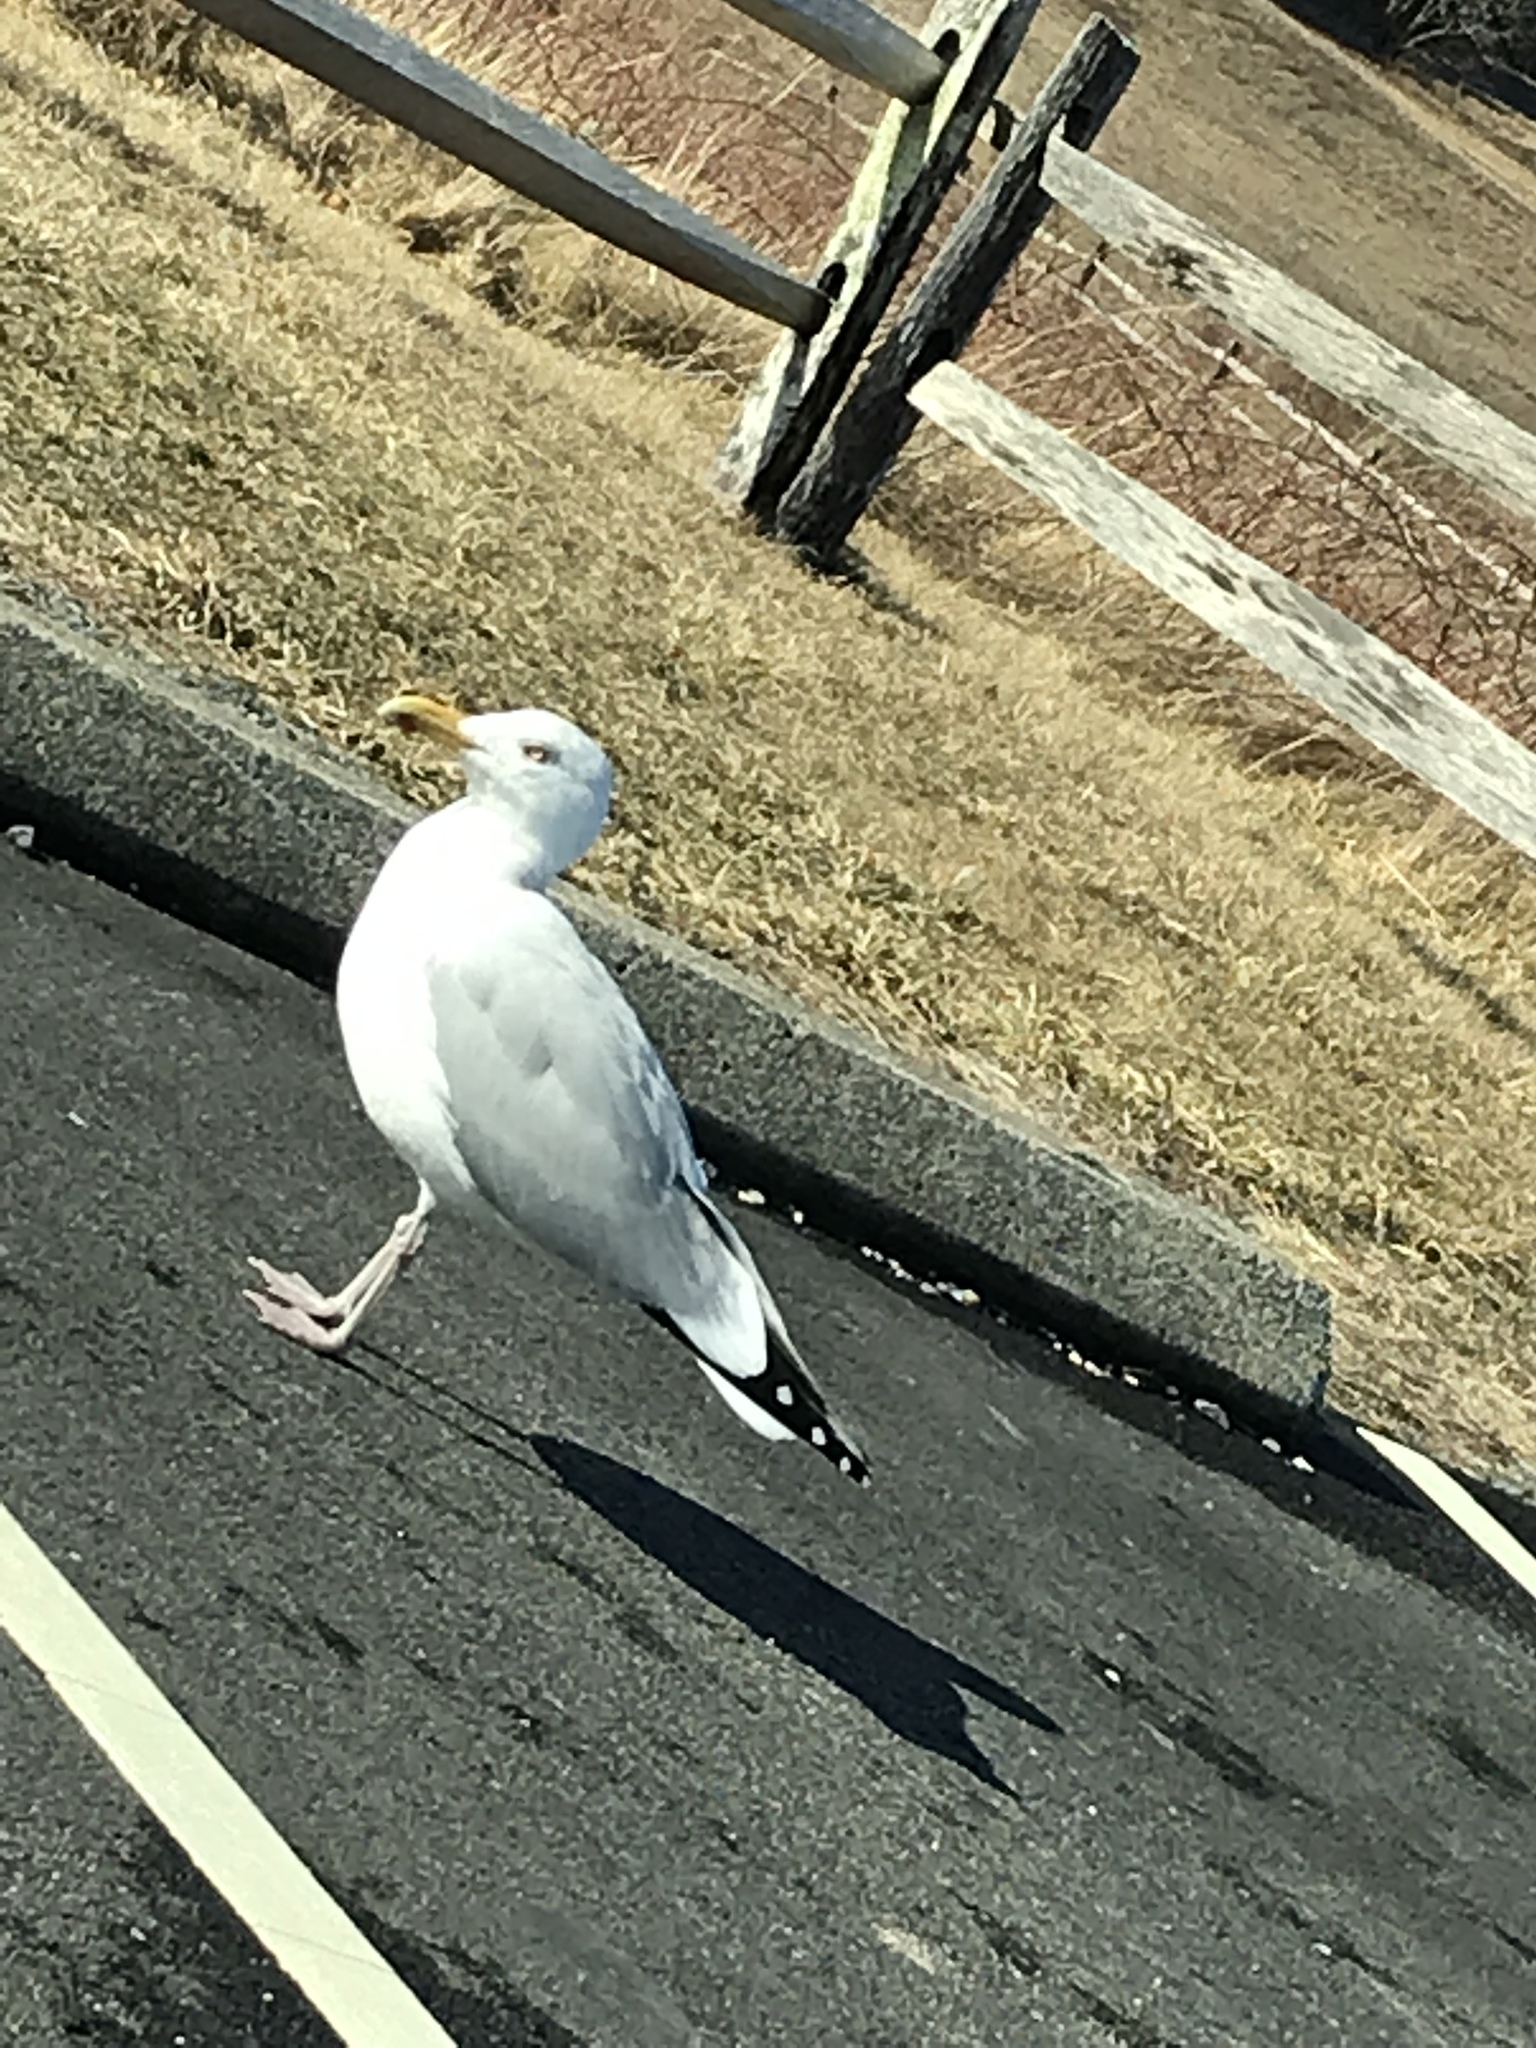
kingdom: Animalia
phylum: Chordata
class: Aves
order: Charadriiformes
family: Laridae
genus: Larus
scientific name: Larus argentatus
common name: Herring gull
